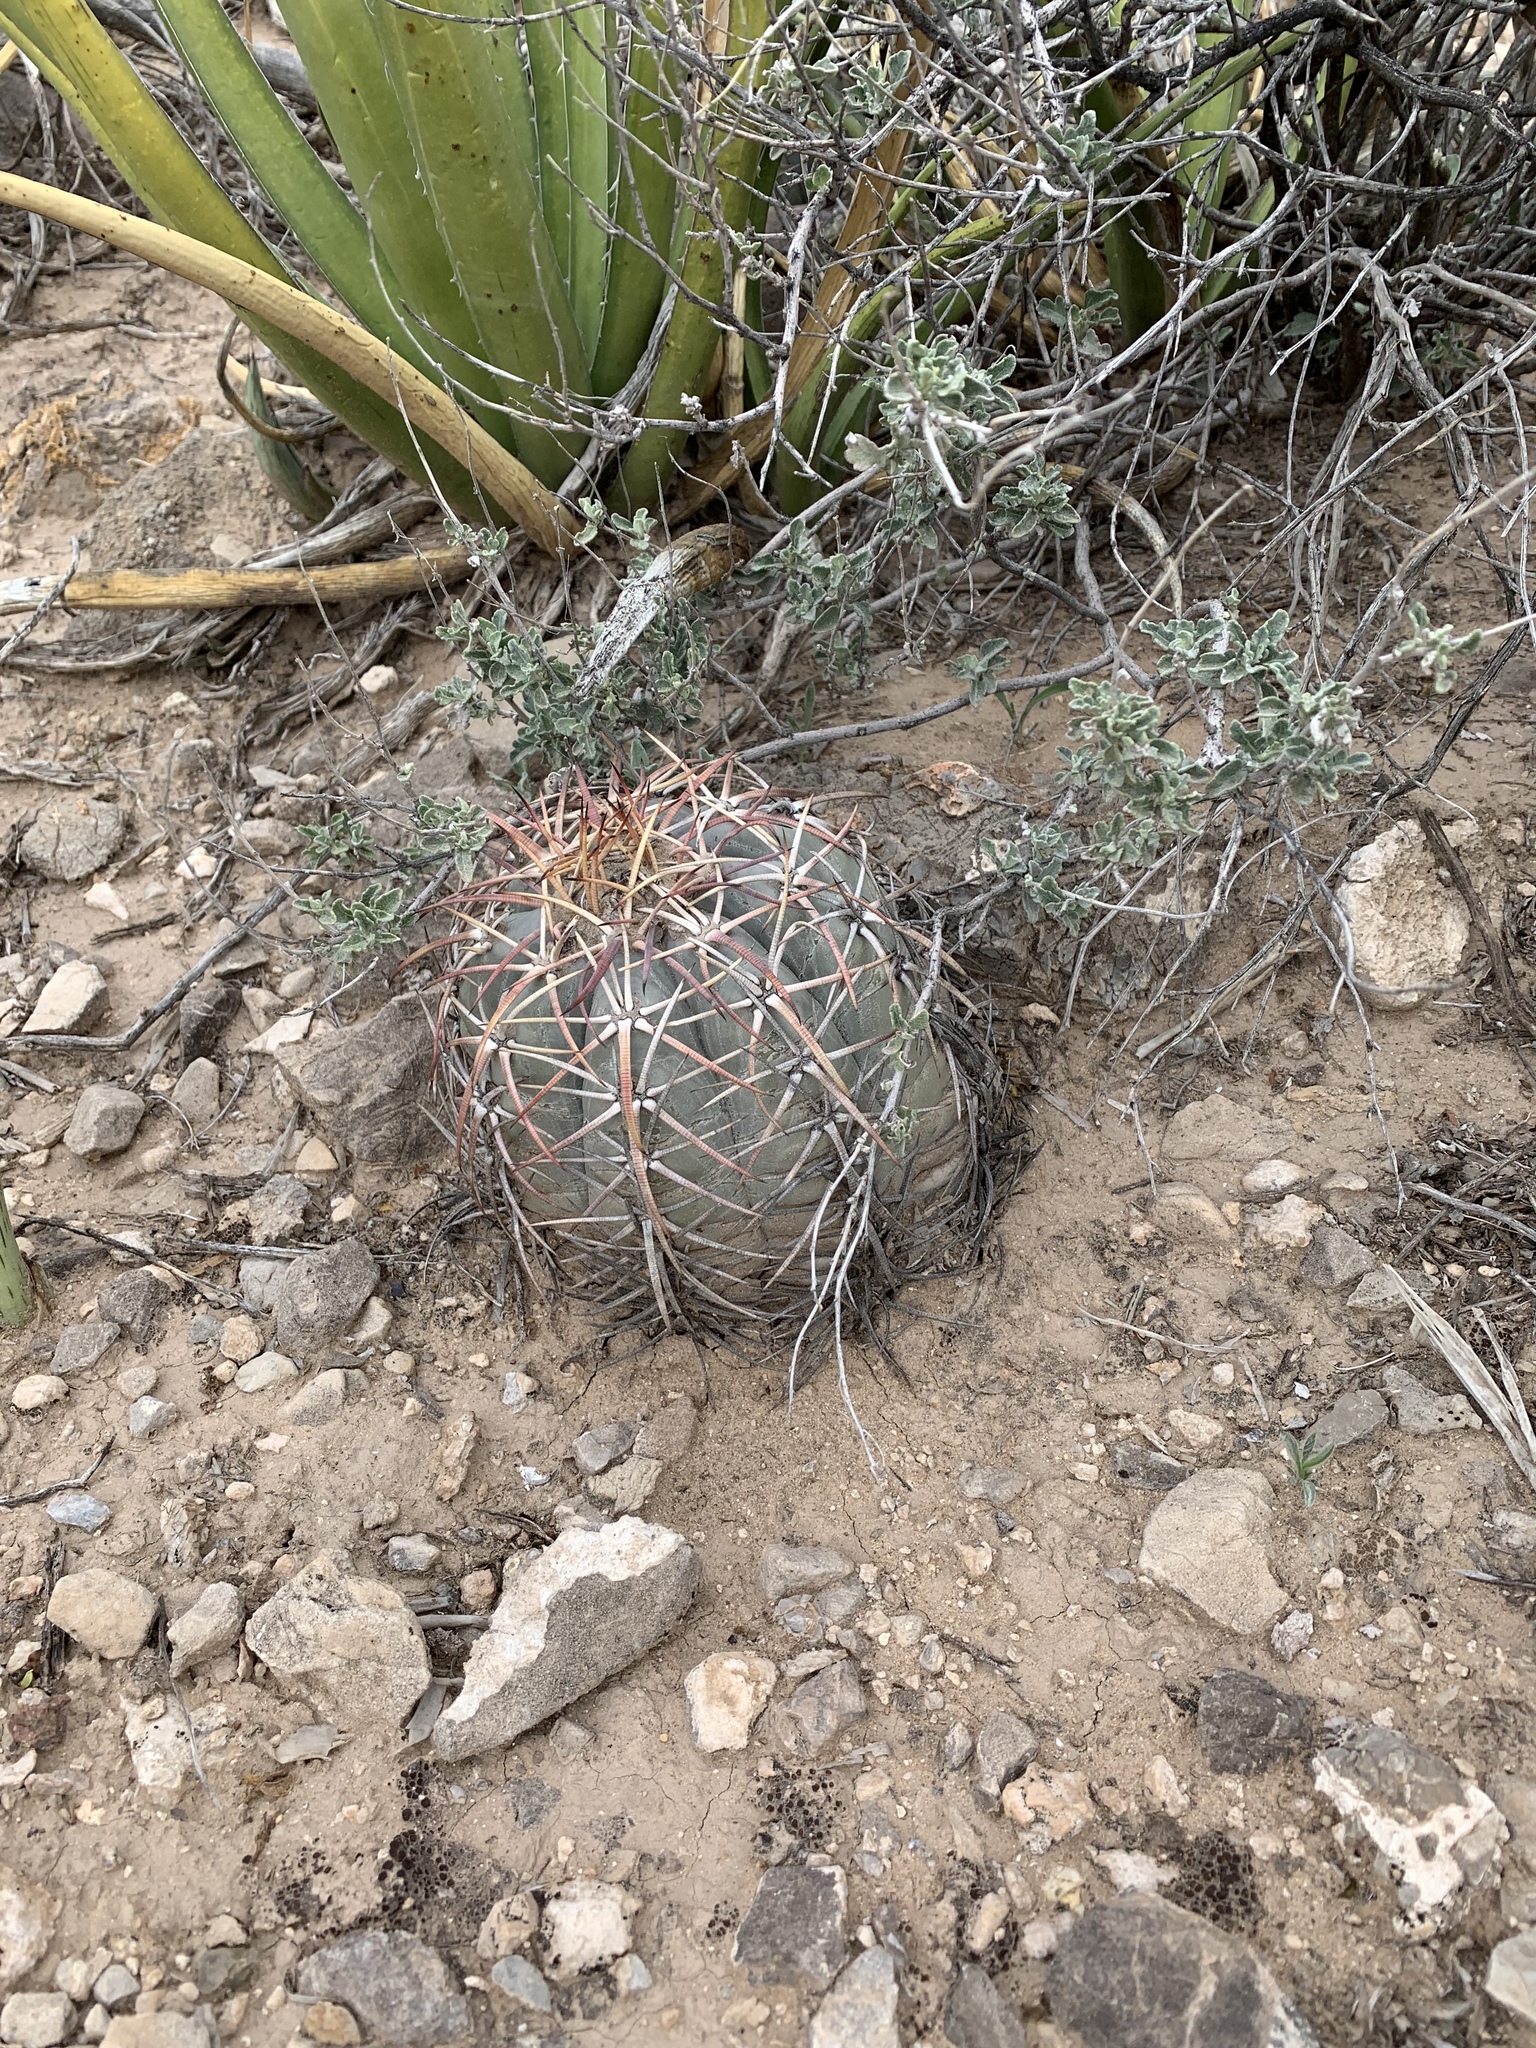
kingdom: Plantae
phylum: Tracheophyta
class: Magnoliopsida
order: Caryophyllales
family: Cactaceae
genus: Echinocactus
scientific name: Echinocactus horizonthalonius
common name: Devilshead
